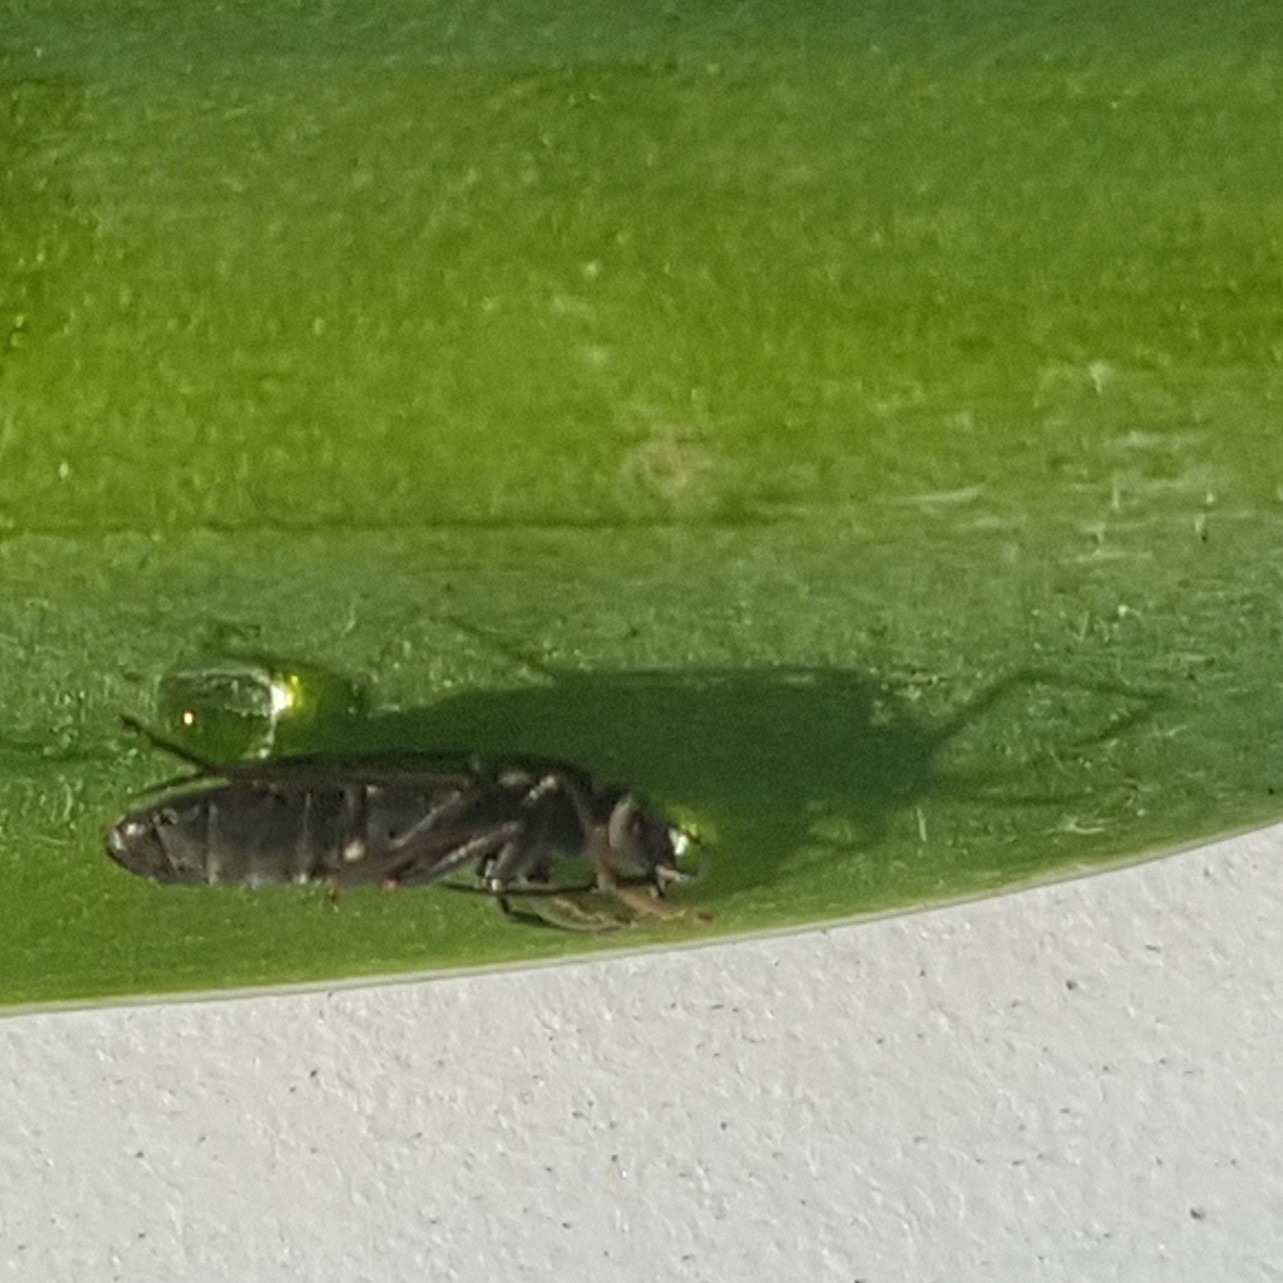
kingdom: Animalia
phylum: Arthropoda
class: Insecta
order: Hemiptera
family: Rhyparochromidae
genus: Rhyparochromus
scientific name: Rhyparochromus vulgaris
